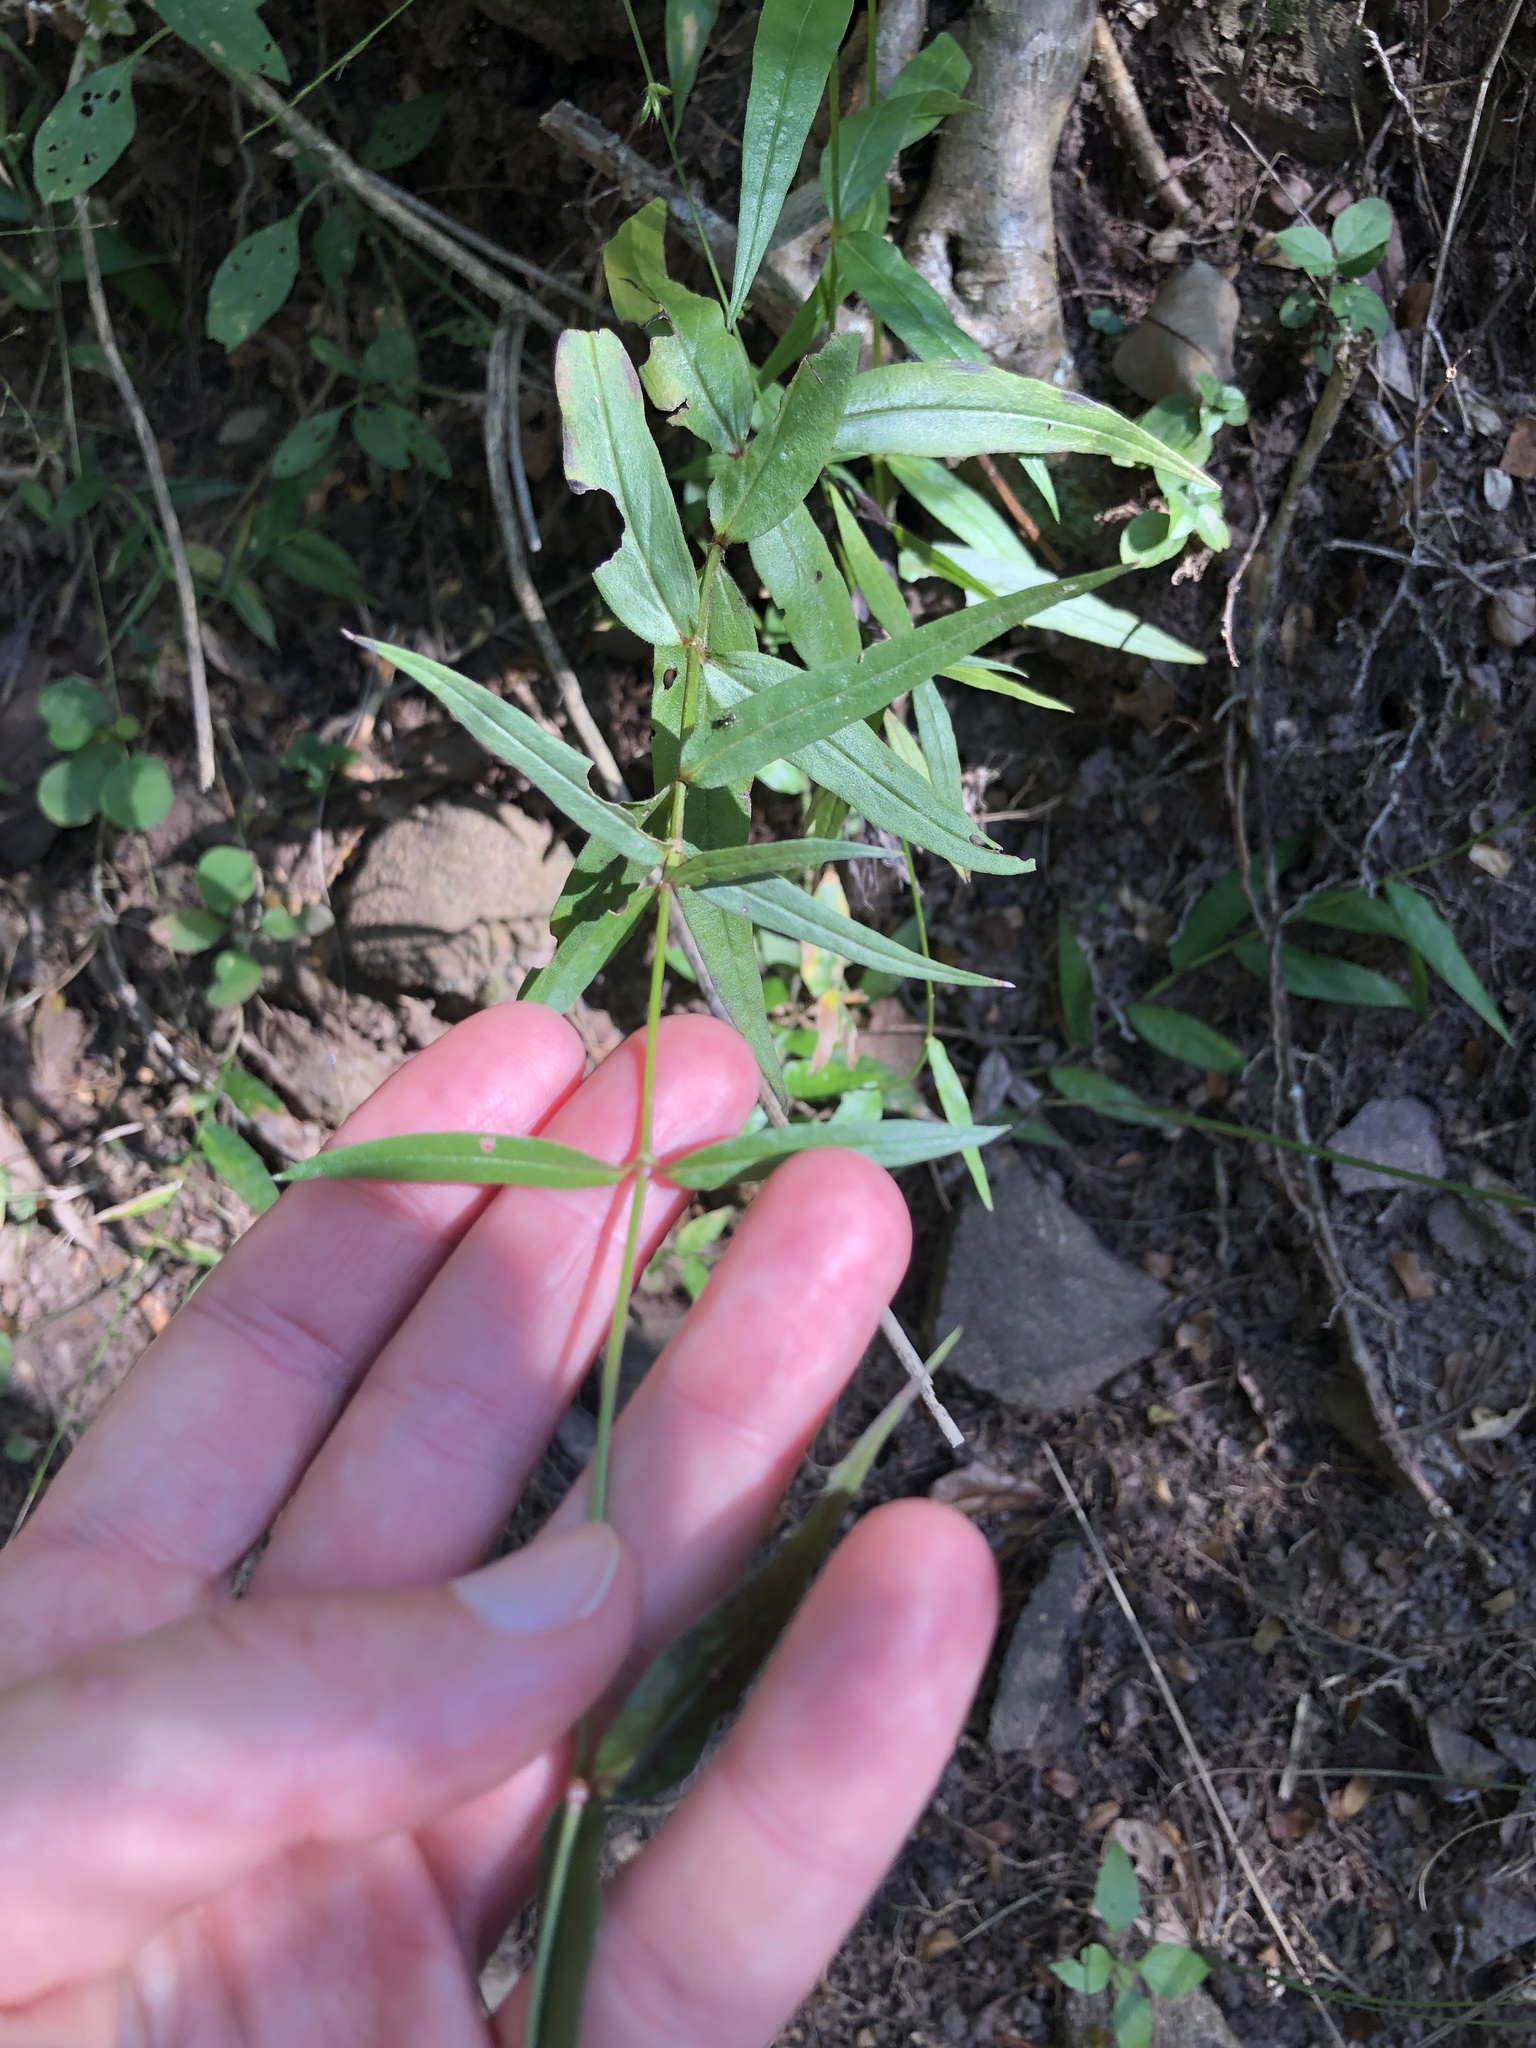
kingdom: Plantae
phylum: Tracheophyta
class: Magnoliopsida
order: Gentianales
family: Rubiaceae
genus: Conostomium
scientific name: Conostomium natalense
